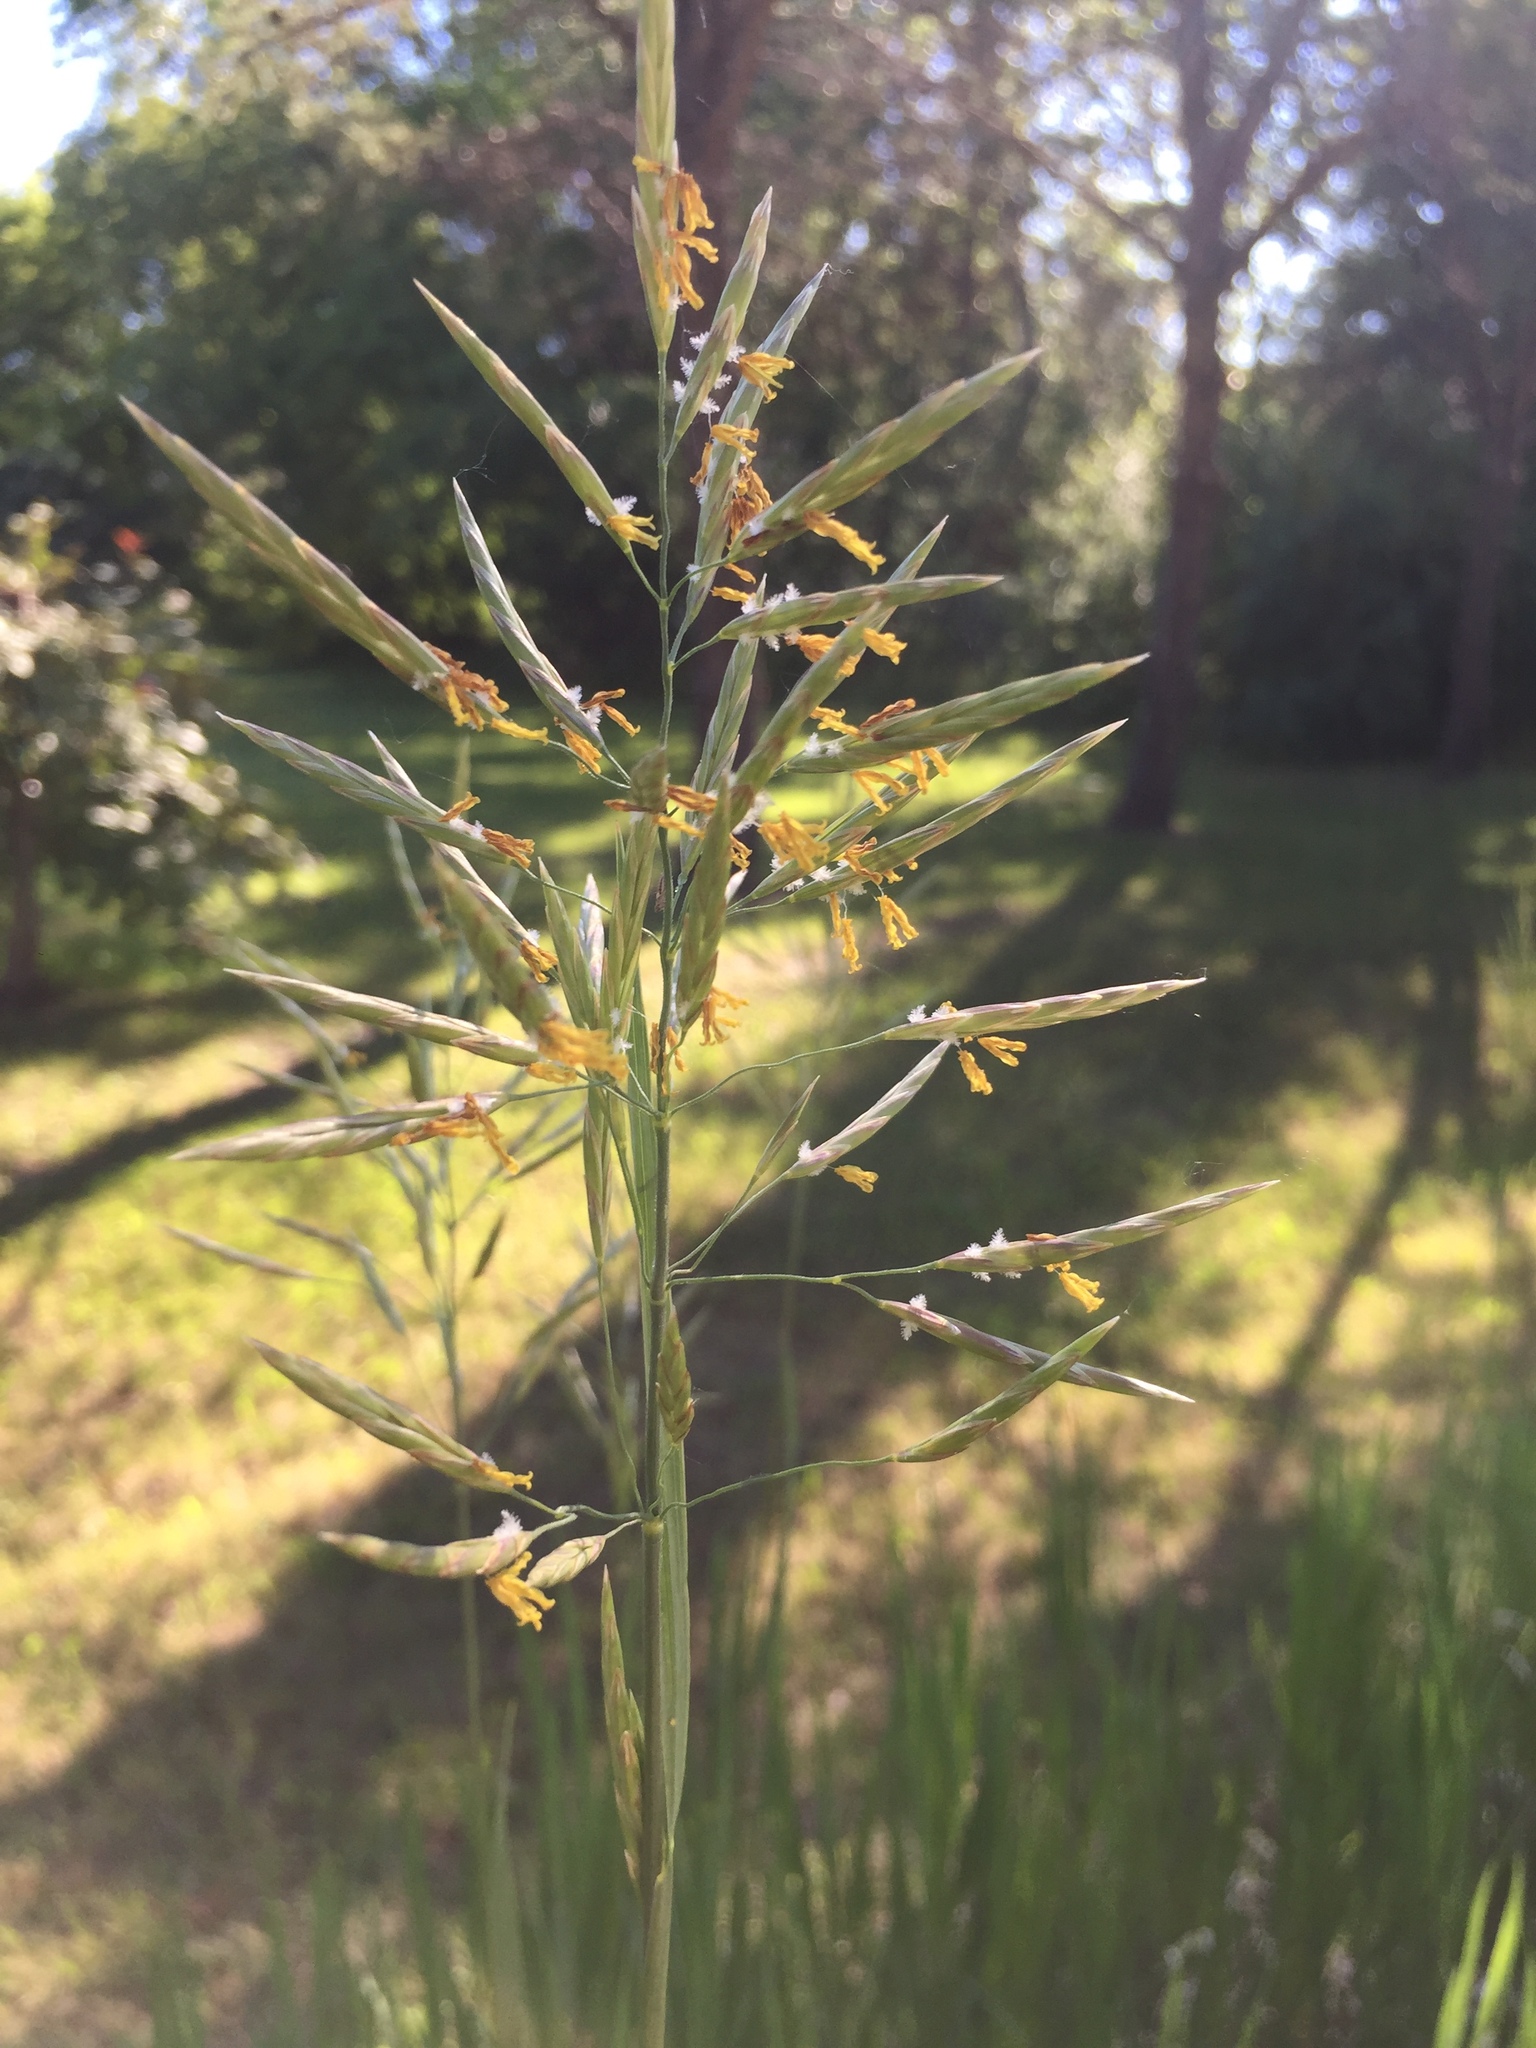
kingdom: Plantae
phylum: Tracheophyta
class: Liliopsida
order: Poales
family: Poaceae
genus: Bromus
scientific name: Bromus inermis
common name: Smooth brome
